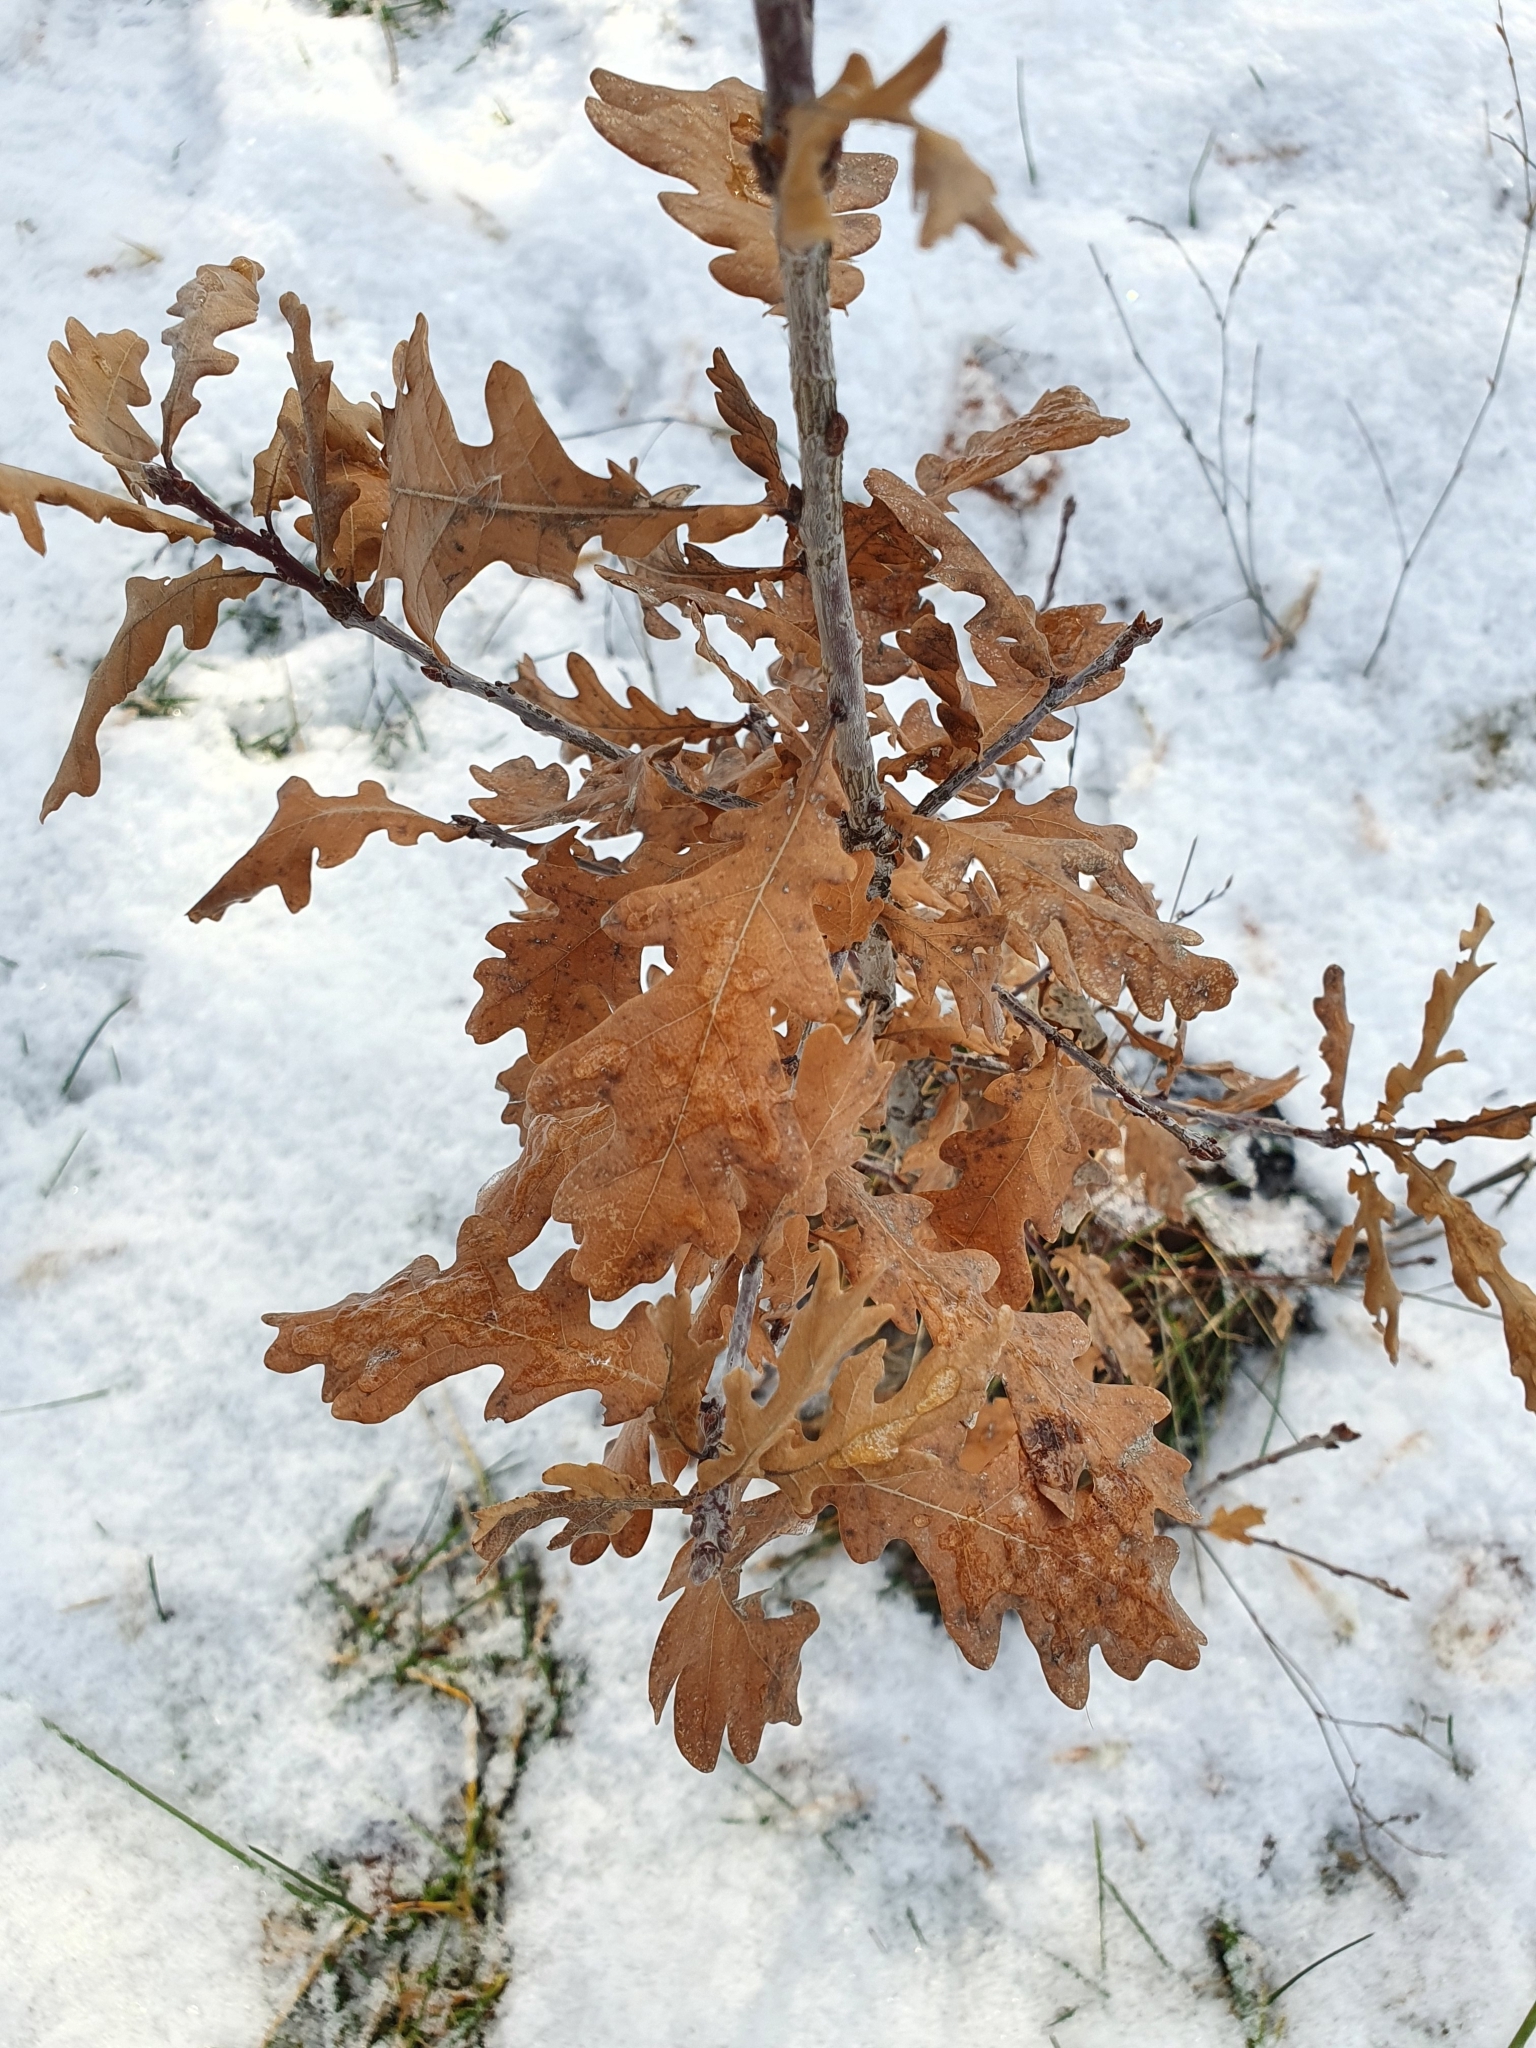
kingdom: Plantae
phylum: Tracheophyta
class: Magnoliopsida
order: Fagales
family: Fagaceae
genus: Quercus
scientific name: Quercus robur
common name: Pedunculate oak
